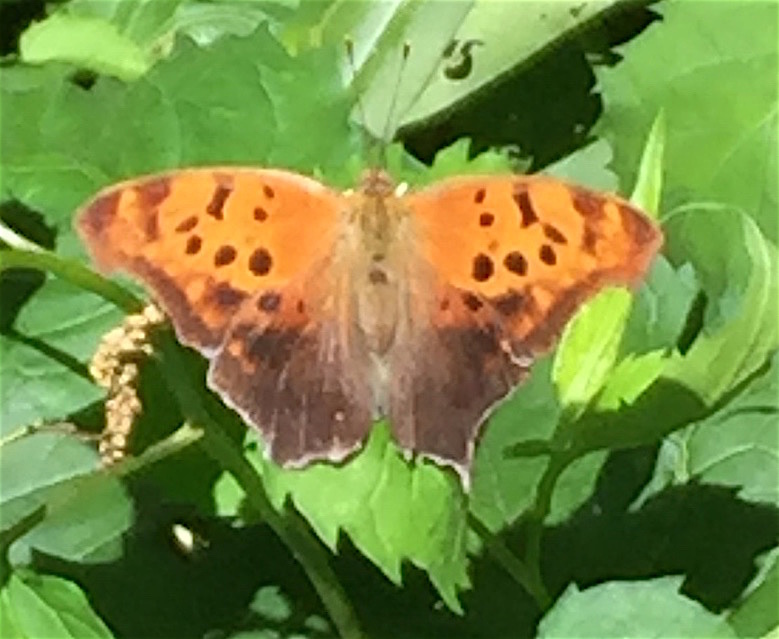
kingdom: Animalia
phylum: Arthropoda
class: Insecta
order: Lepidoptera
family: Nymphalidae
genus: Polygonia
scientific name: Polygonia interrogationis
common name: Question mark
